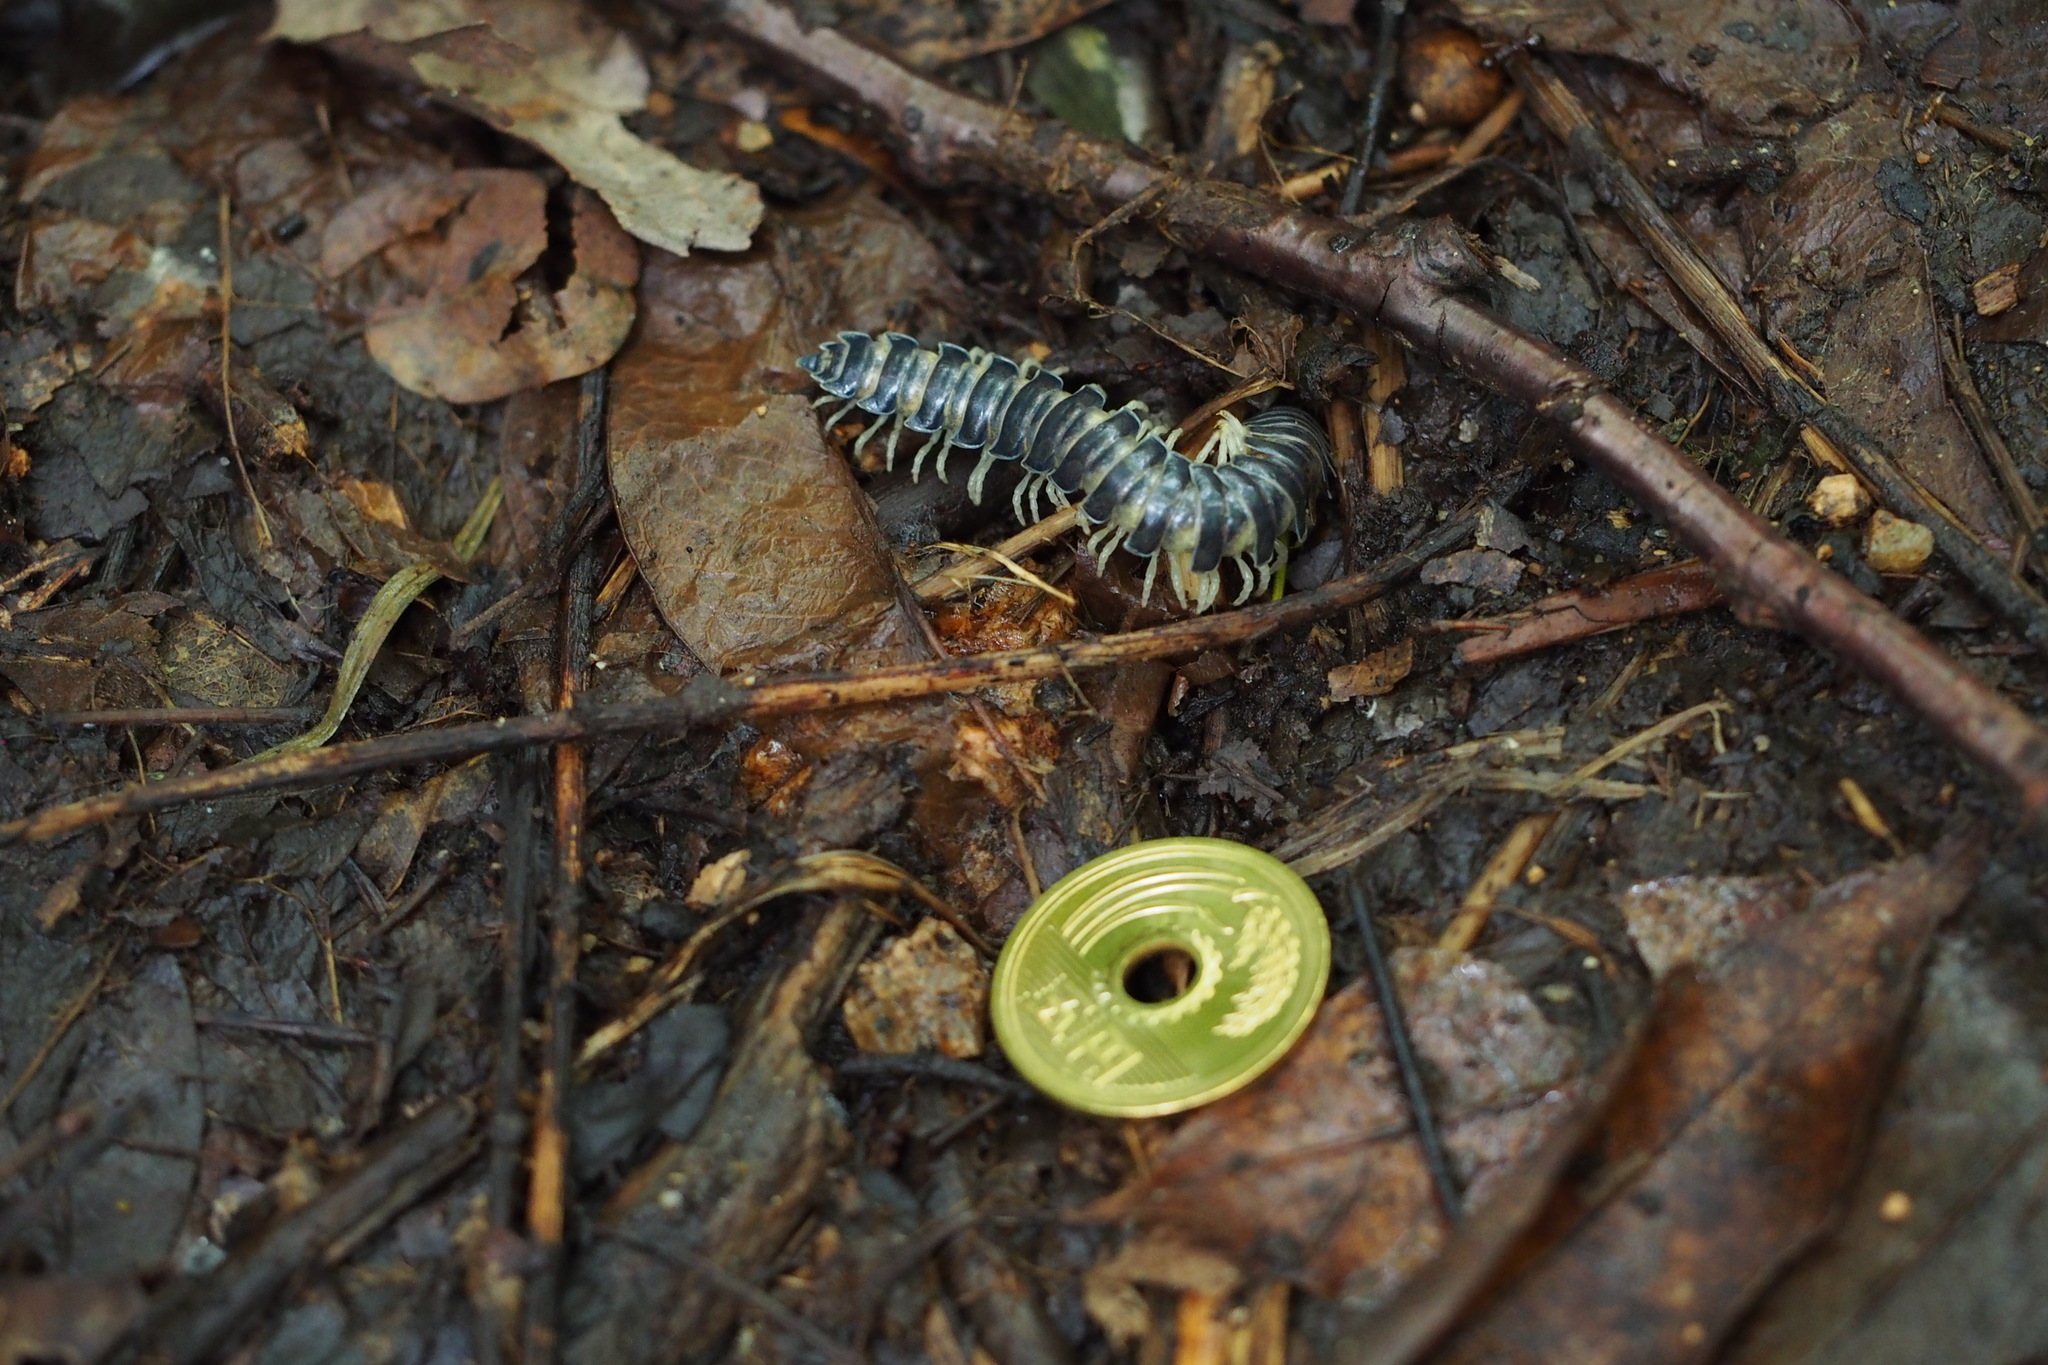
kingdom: Animalia
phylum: Arthropoda
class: Diplopoda
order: Polydesmida
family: Xystodesmidae
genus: Parafontaria
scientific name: Parafontaria tonominea
